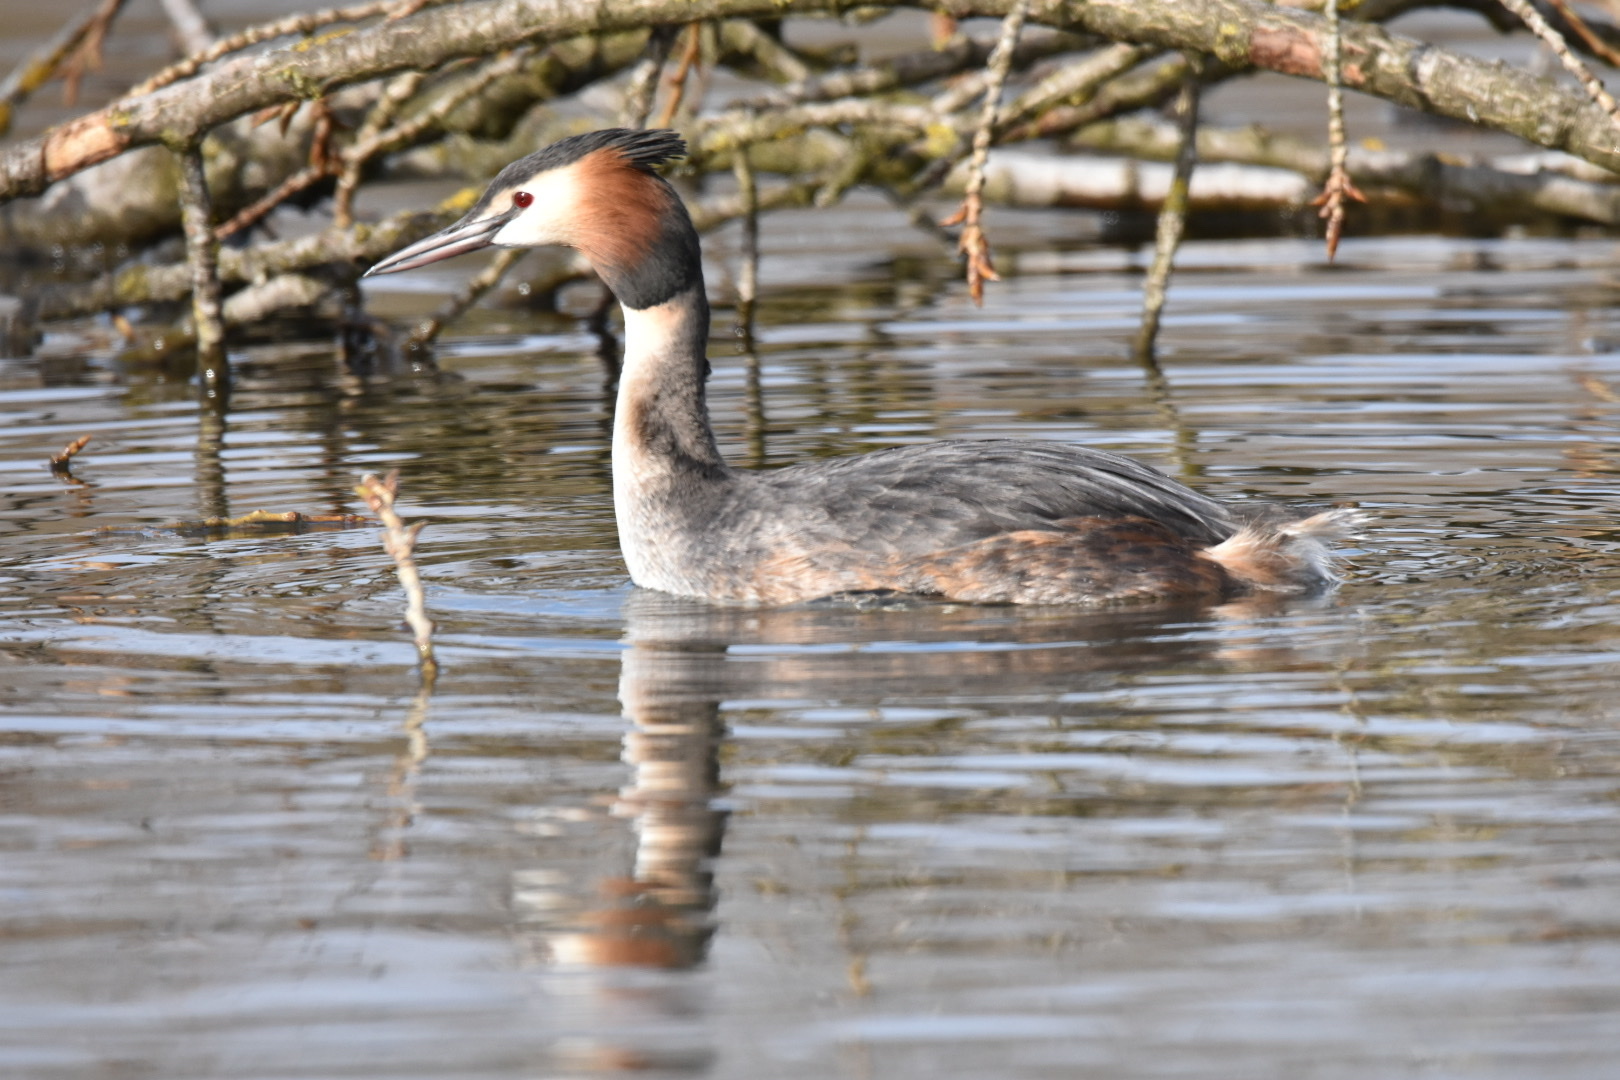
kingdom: Animalia
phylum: Chordata
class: Aves
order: Podicipediformes
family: Podicipedidae
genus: Podiceps
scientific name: Podiceps cristatus
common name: Great crested grebe
